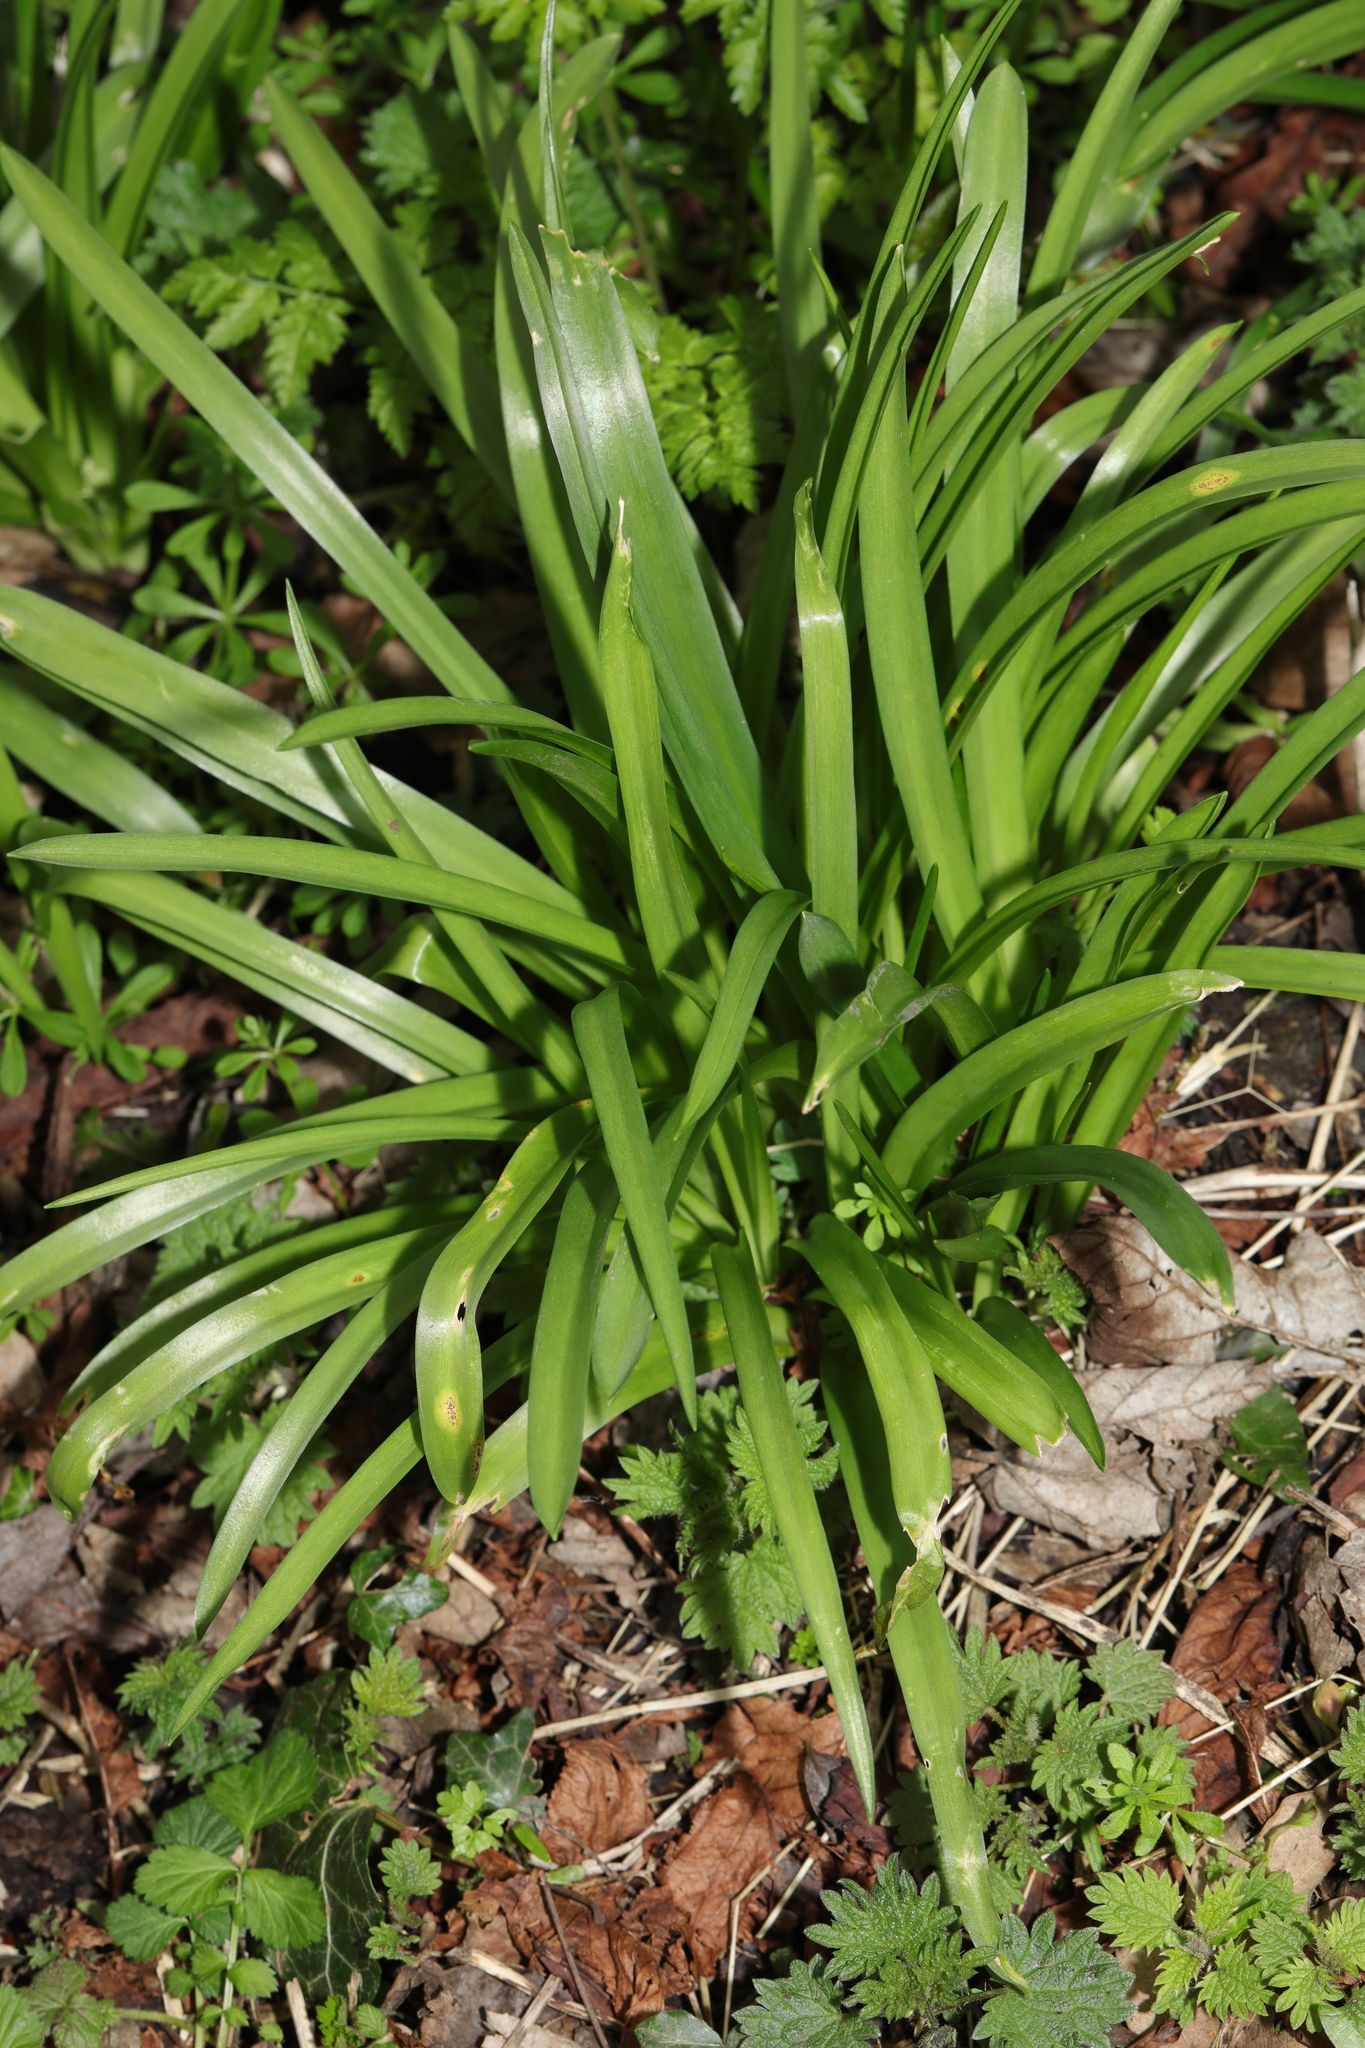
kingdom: Plantae
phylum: Tracheophyta
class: Liliopsida
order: Asparagales
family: Asparagaceae
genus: Hyacinthoides
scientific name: Hyacinthoides massartiana
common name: Hyacinthoides
